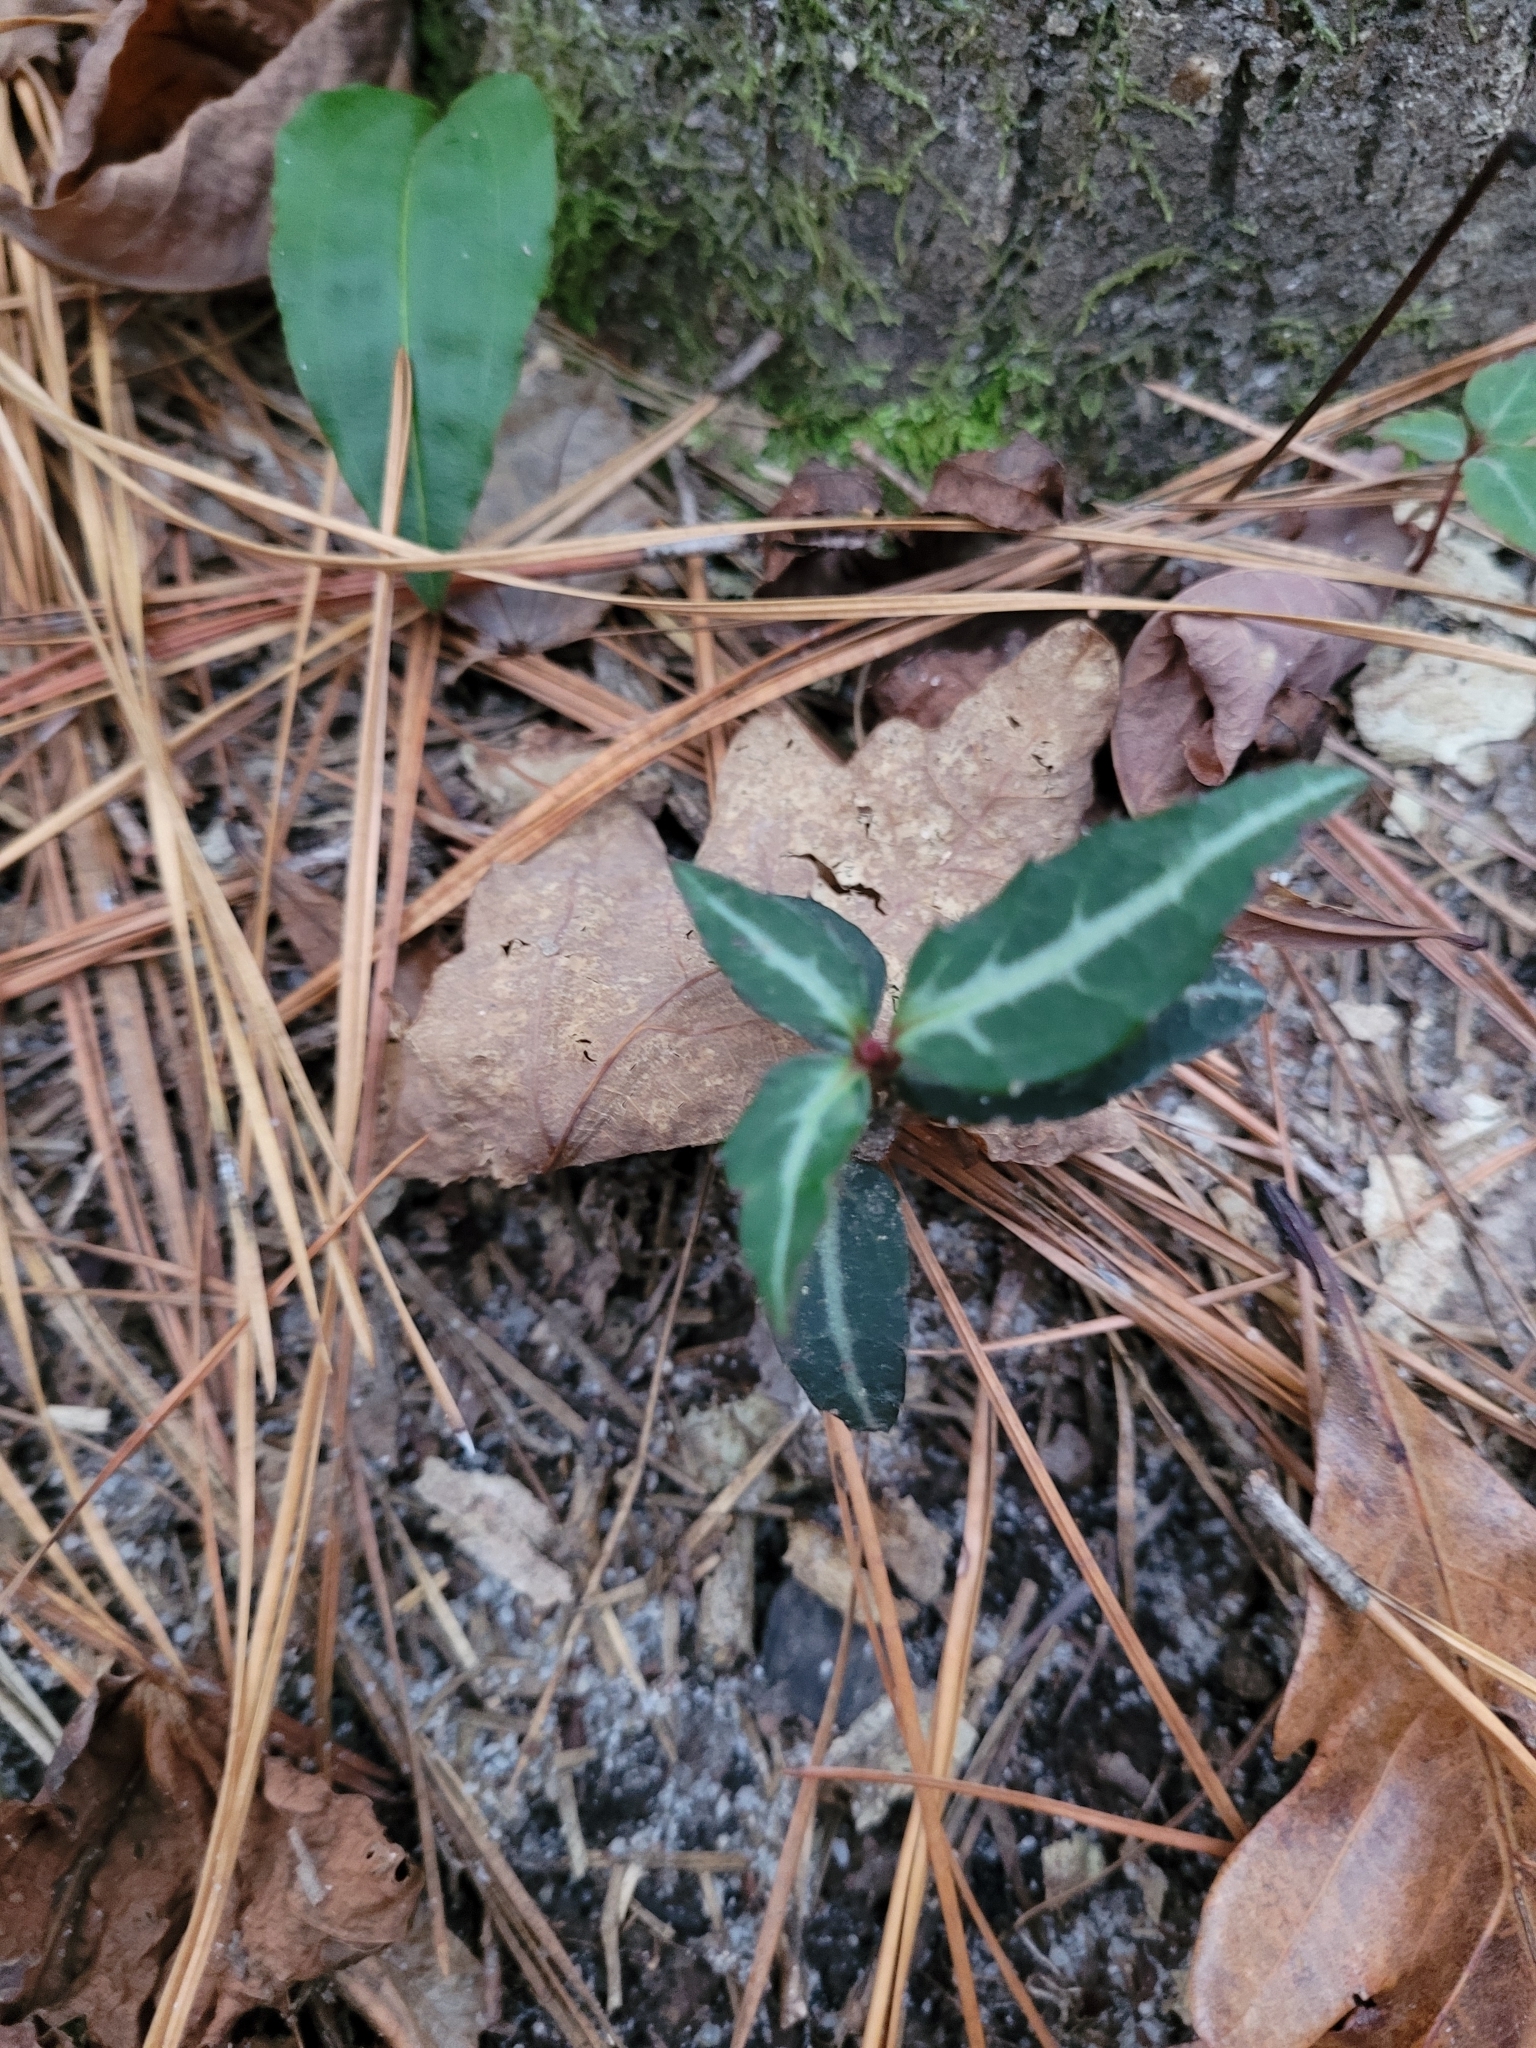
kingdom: Plantae
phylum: Tracheophyta
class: Magnoliopsida
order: Ericales
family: Ericaceae
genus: Chimaphila
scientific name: Chimaphila maculata
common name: Spotted pipsissewa
